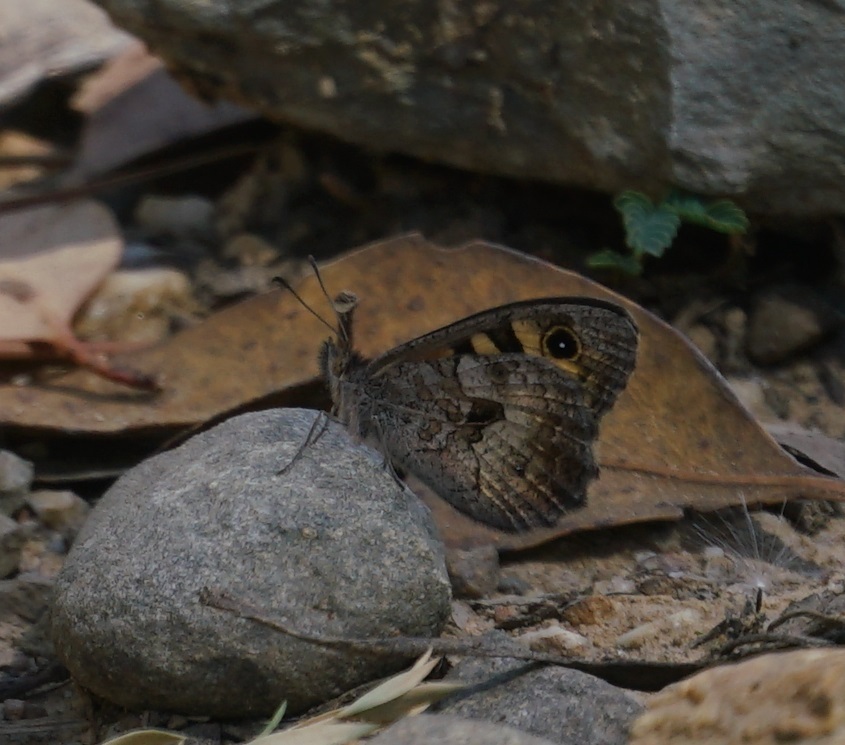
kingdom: Animalia
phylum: Arthropoda
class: Insecta
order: Lepidoptera
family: Nymphalidae
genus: Geitoneura
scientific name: Geitoneura klugii
